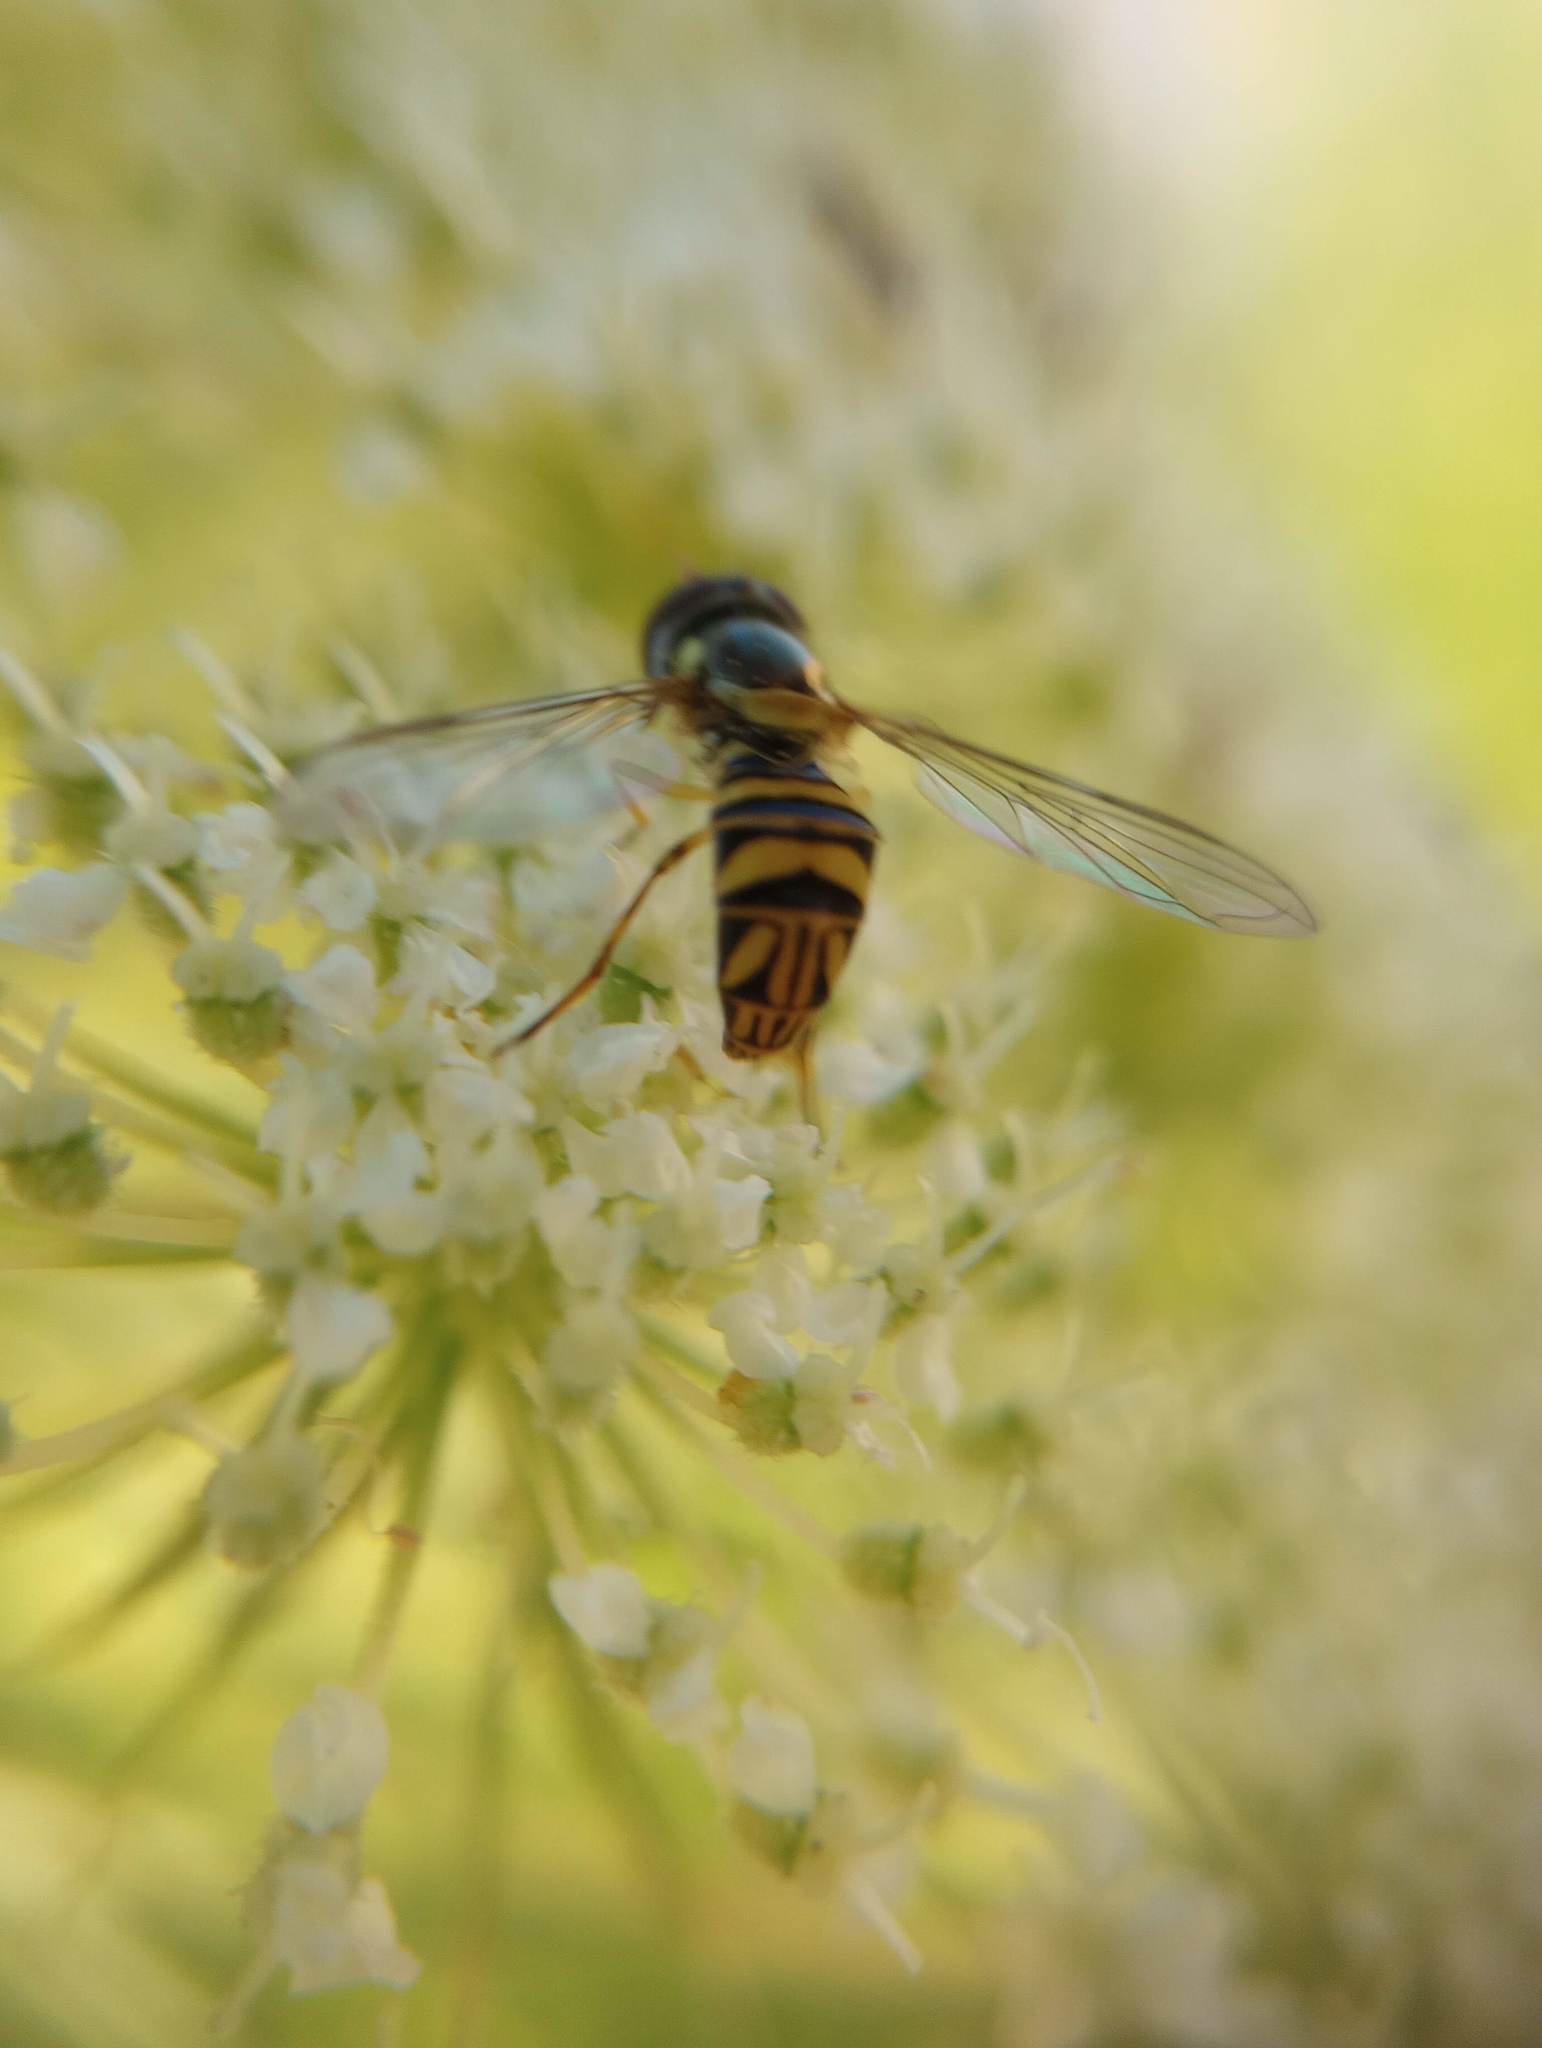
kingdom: Animalia
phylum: Arthropoda
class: Insecta
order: Diptera
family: Syrphidae
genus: Allograpta
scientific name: Allograpta obliqua
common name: Common oblique syrphid
